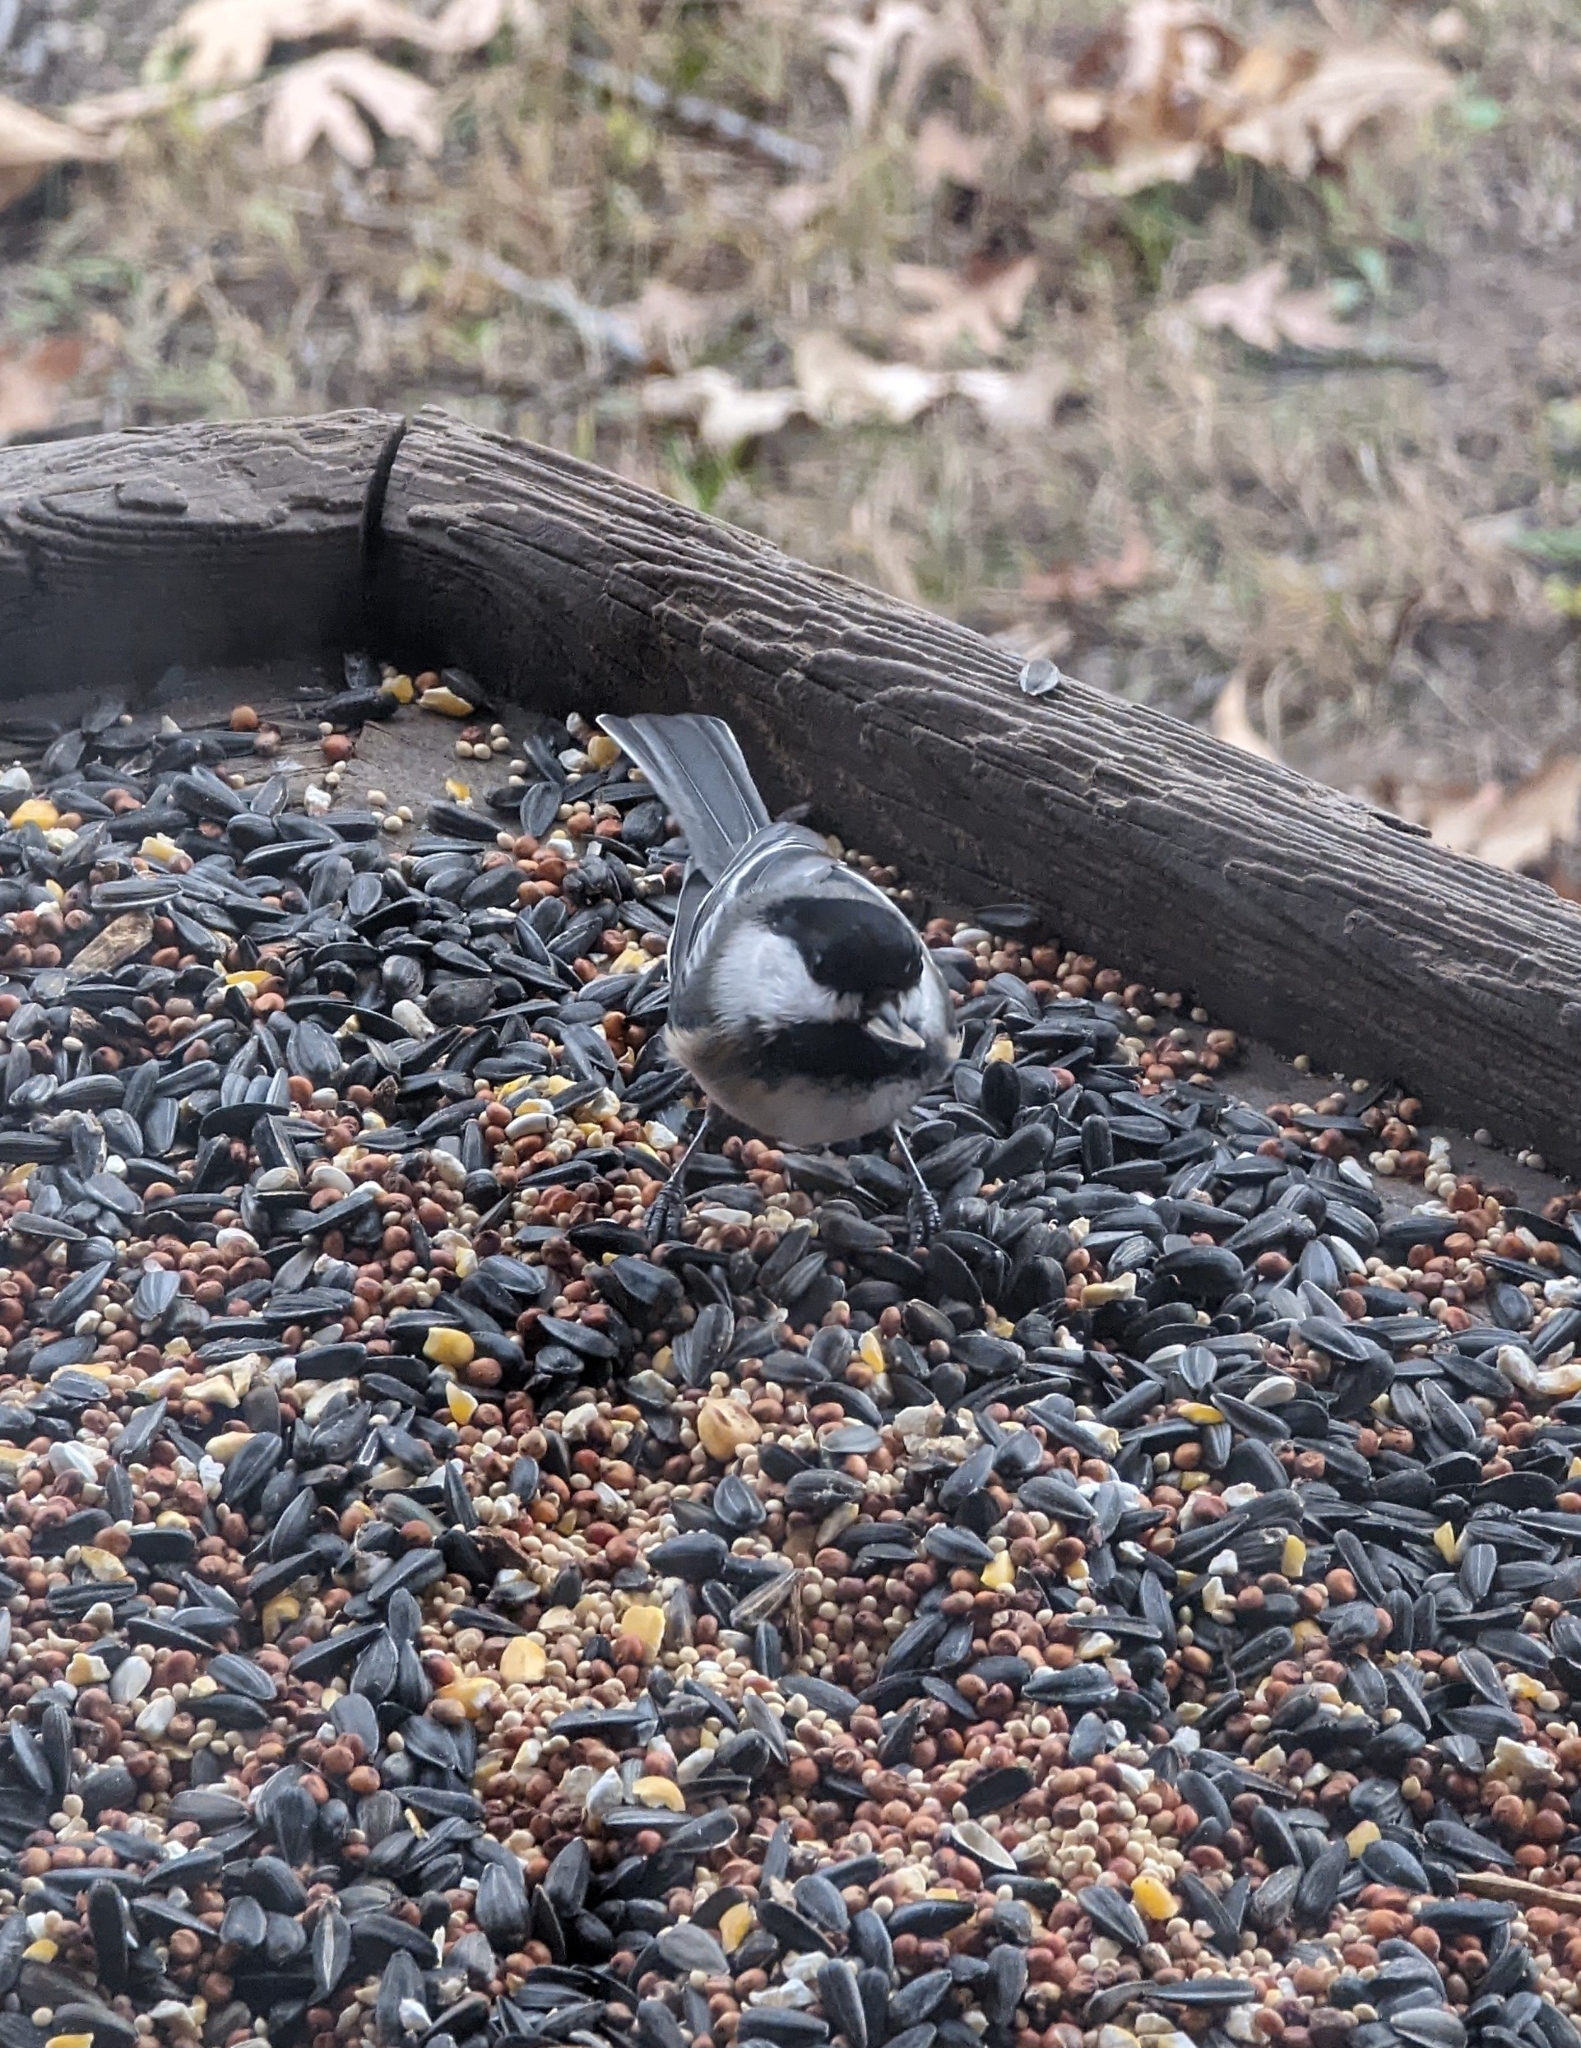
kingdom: Animalia
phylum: Chordata
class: Aves
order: Passeriformes
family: Paridae
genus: Poecile
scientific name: Poecile atricapillus
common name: Black-capped chickadee
